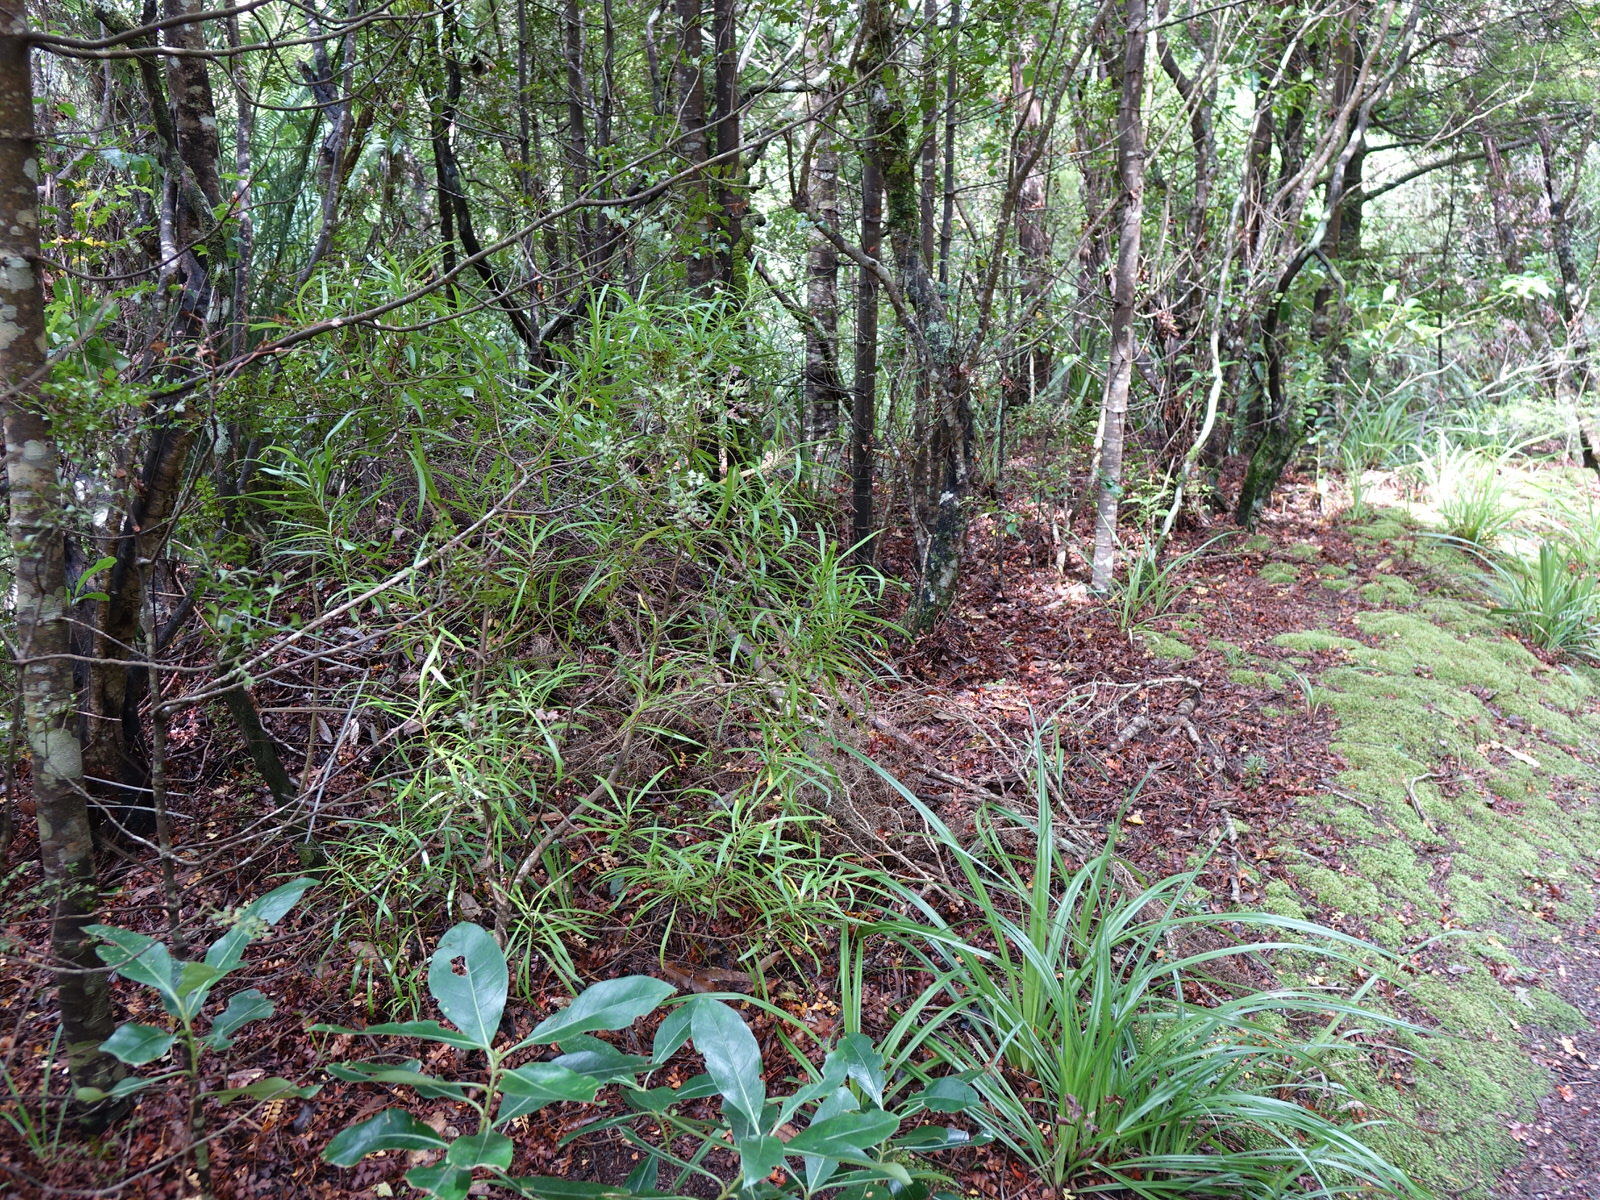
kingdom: Plantae
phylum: Tracheophyta
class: Magnoliopsida
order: Proteales
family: Proteaceae
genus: Toronia
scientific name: Toronia toru
